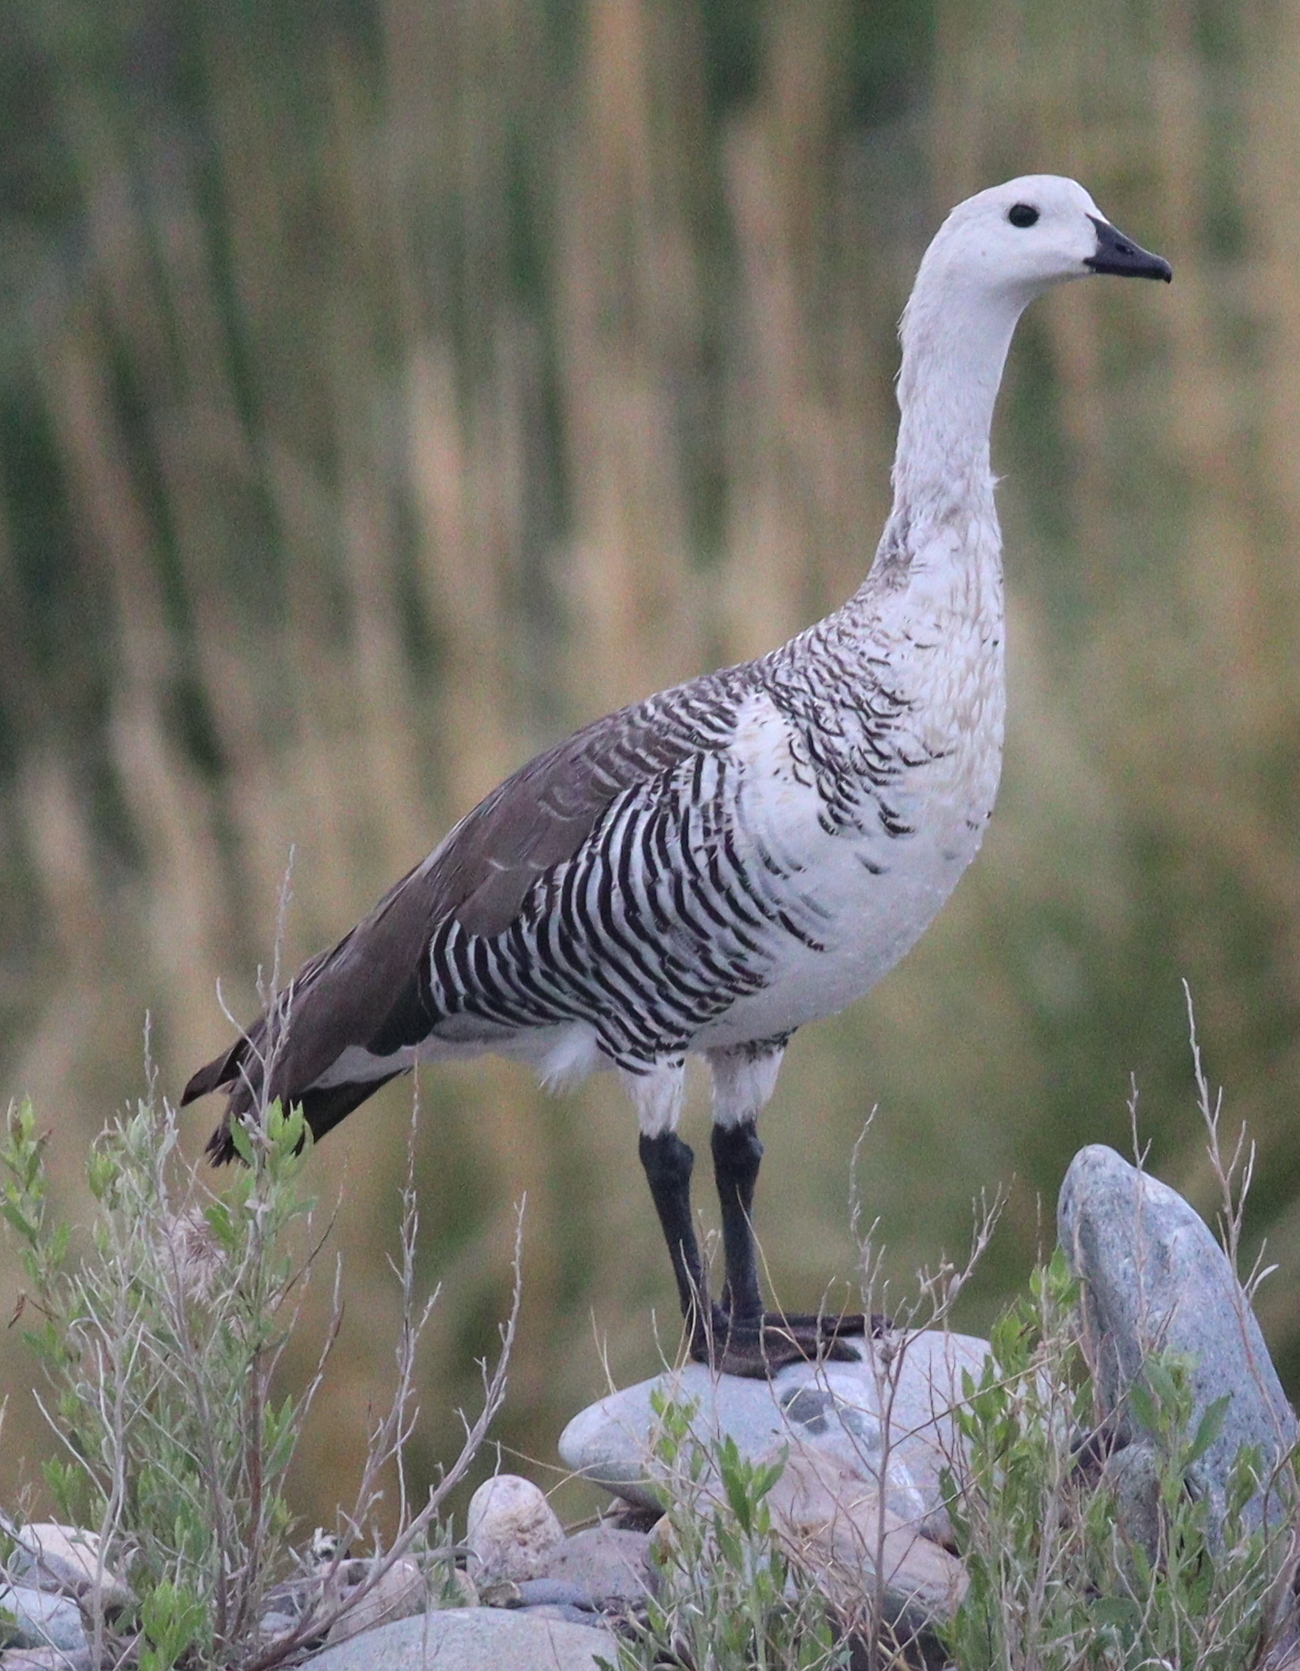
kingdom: Animalia
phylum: Chordata
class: Aves
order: Anseriformes
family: Anatidae
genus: Chloephaga
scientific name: Chloephaga picta
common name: Upland goose
